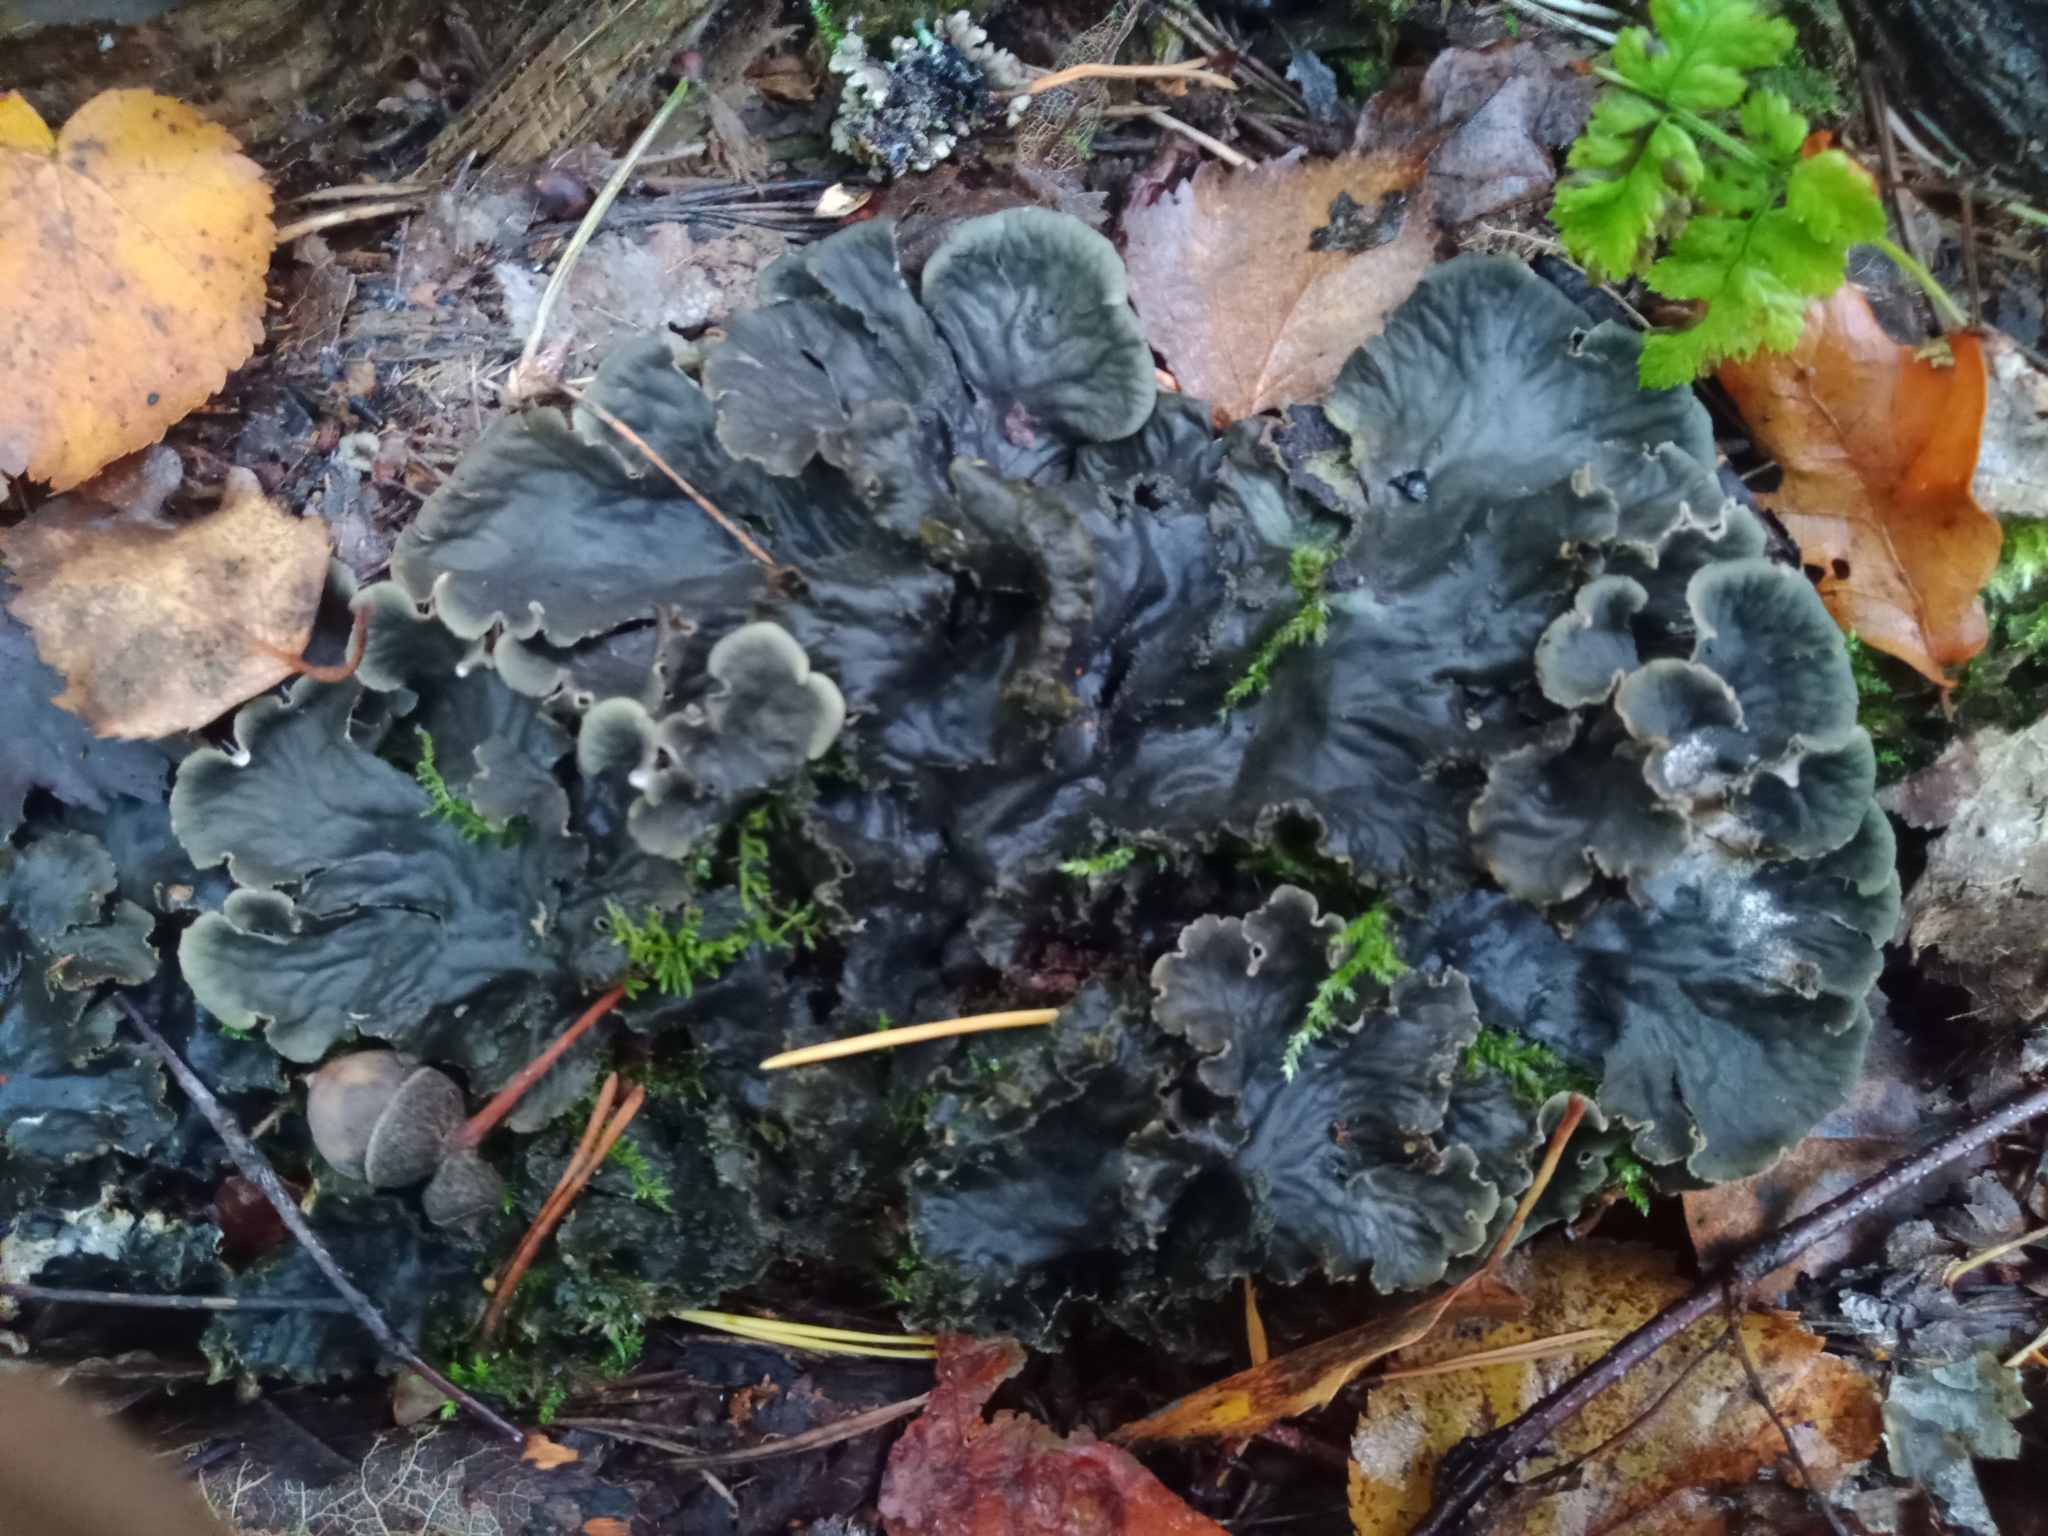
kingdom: Fungi
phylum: Ascomycota
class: Lecanoromycetes
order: Peltigerales
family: Peltigeraceae
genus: Peltigera
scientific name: Peltigera praetextata
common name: Scaly dog-lichen
